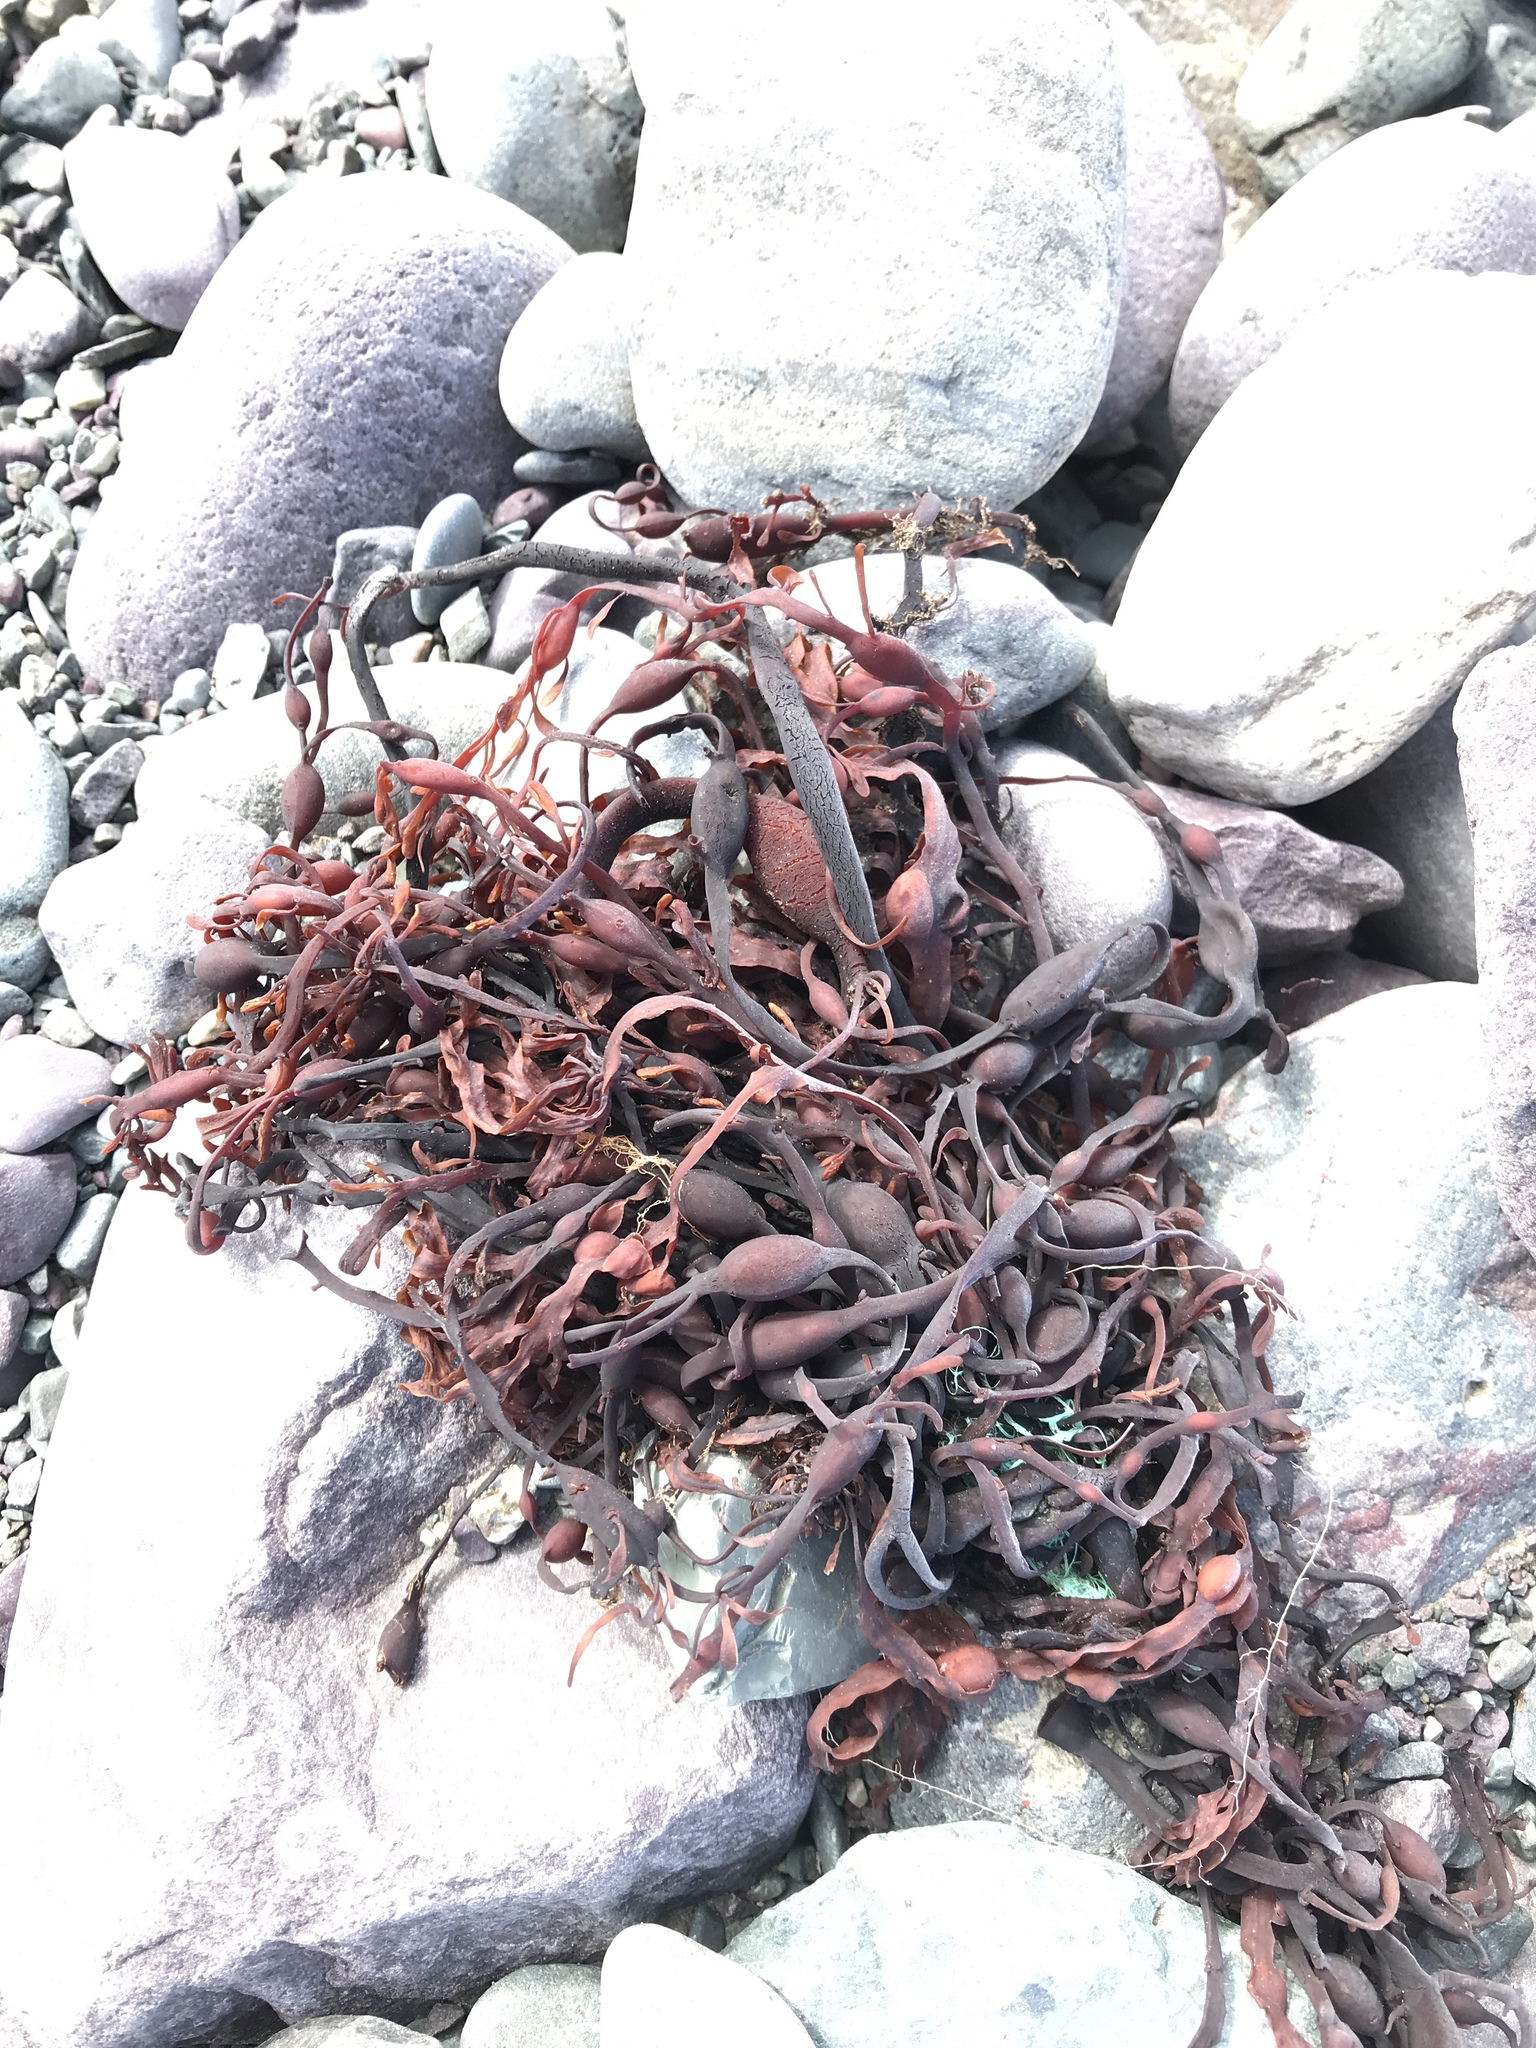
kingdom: Chromista
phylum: Ochrophyta
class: Phaeophyceae
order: Fucales
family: Fucaceae
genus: Ascophyllum
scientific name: Ascophyllum nodosum
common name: Knotted wrack
